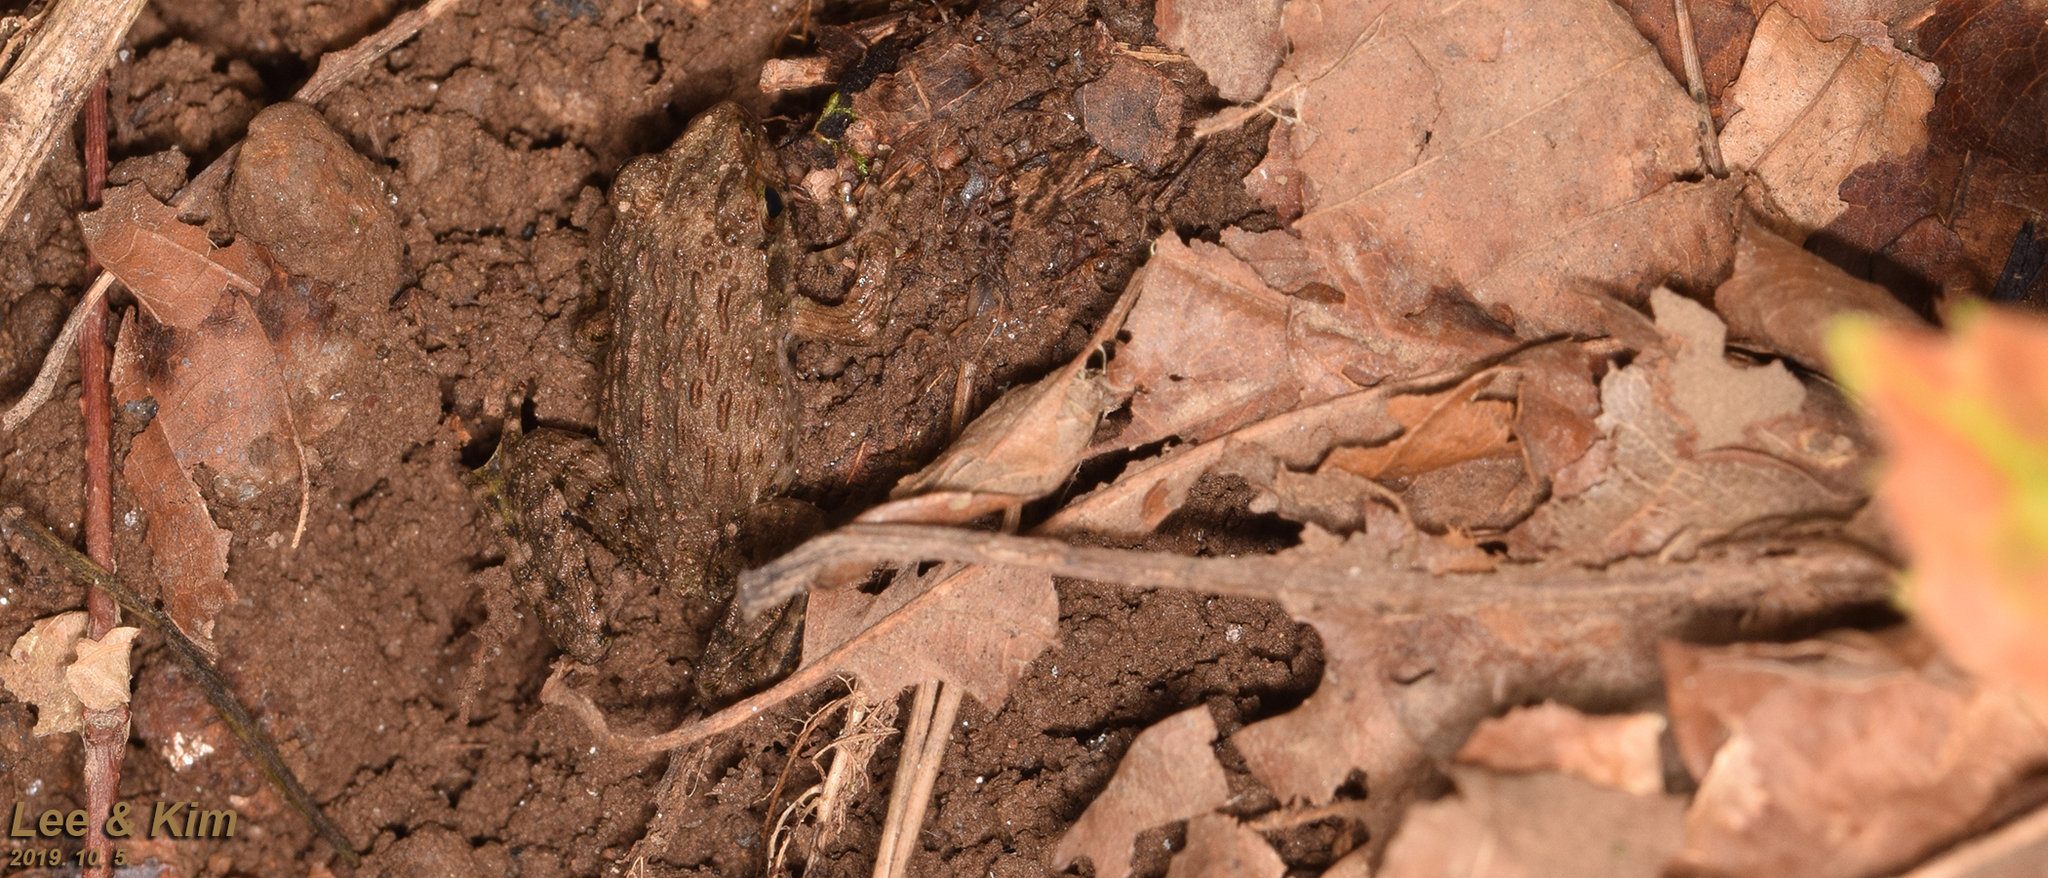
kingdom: Animalia
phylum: Chordata
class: Amphibia
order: Anura
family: Ranidae
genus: Glandirana
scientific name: Glandirana emeljanovi
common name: Northeast china rough-skinned frog
